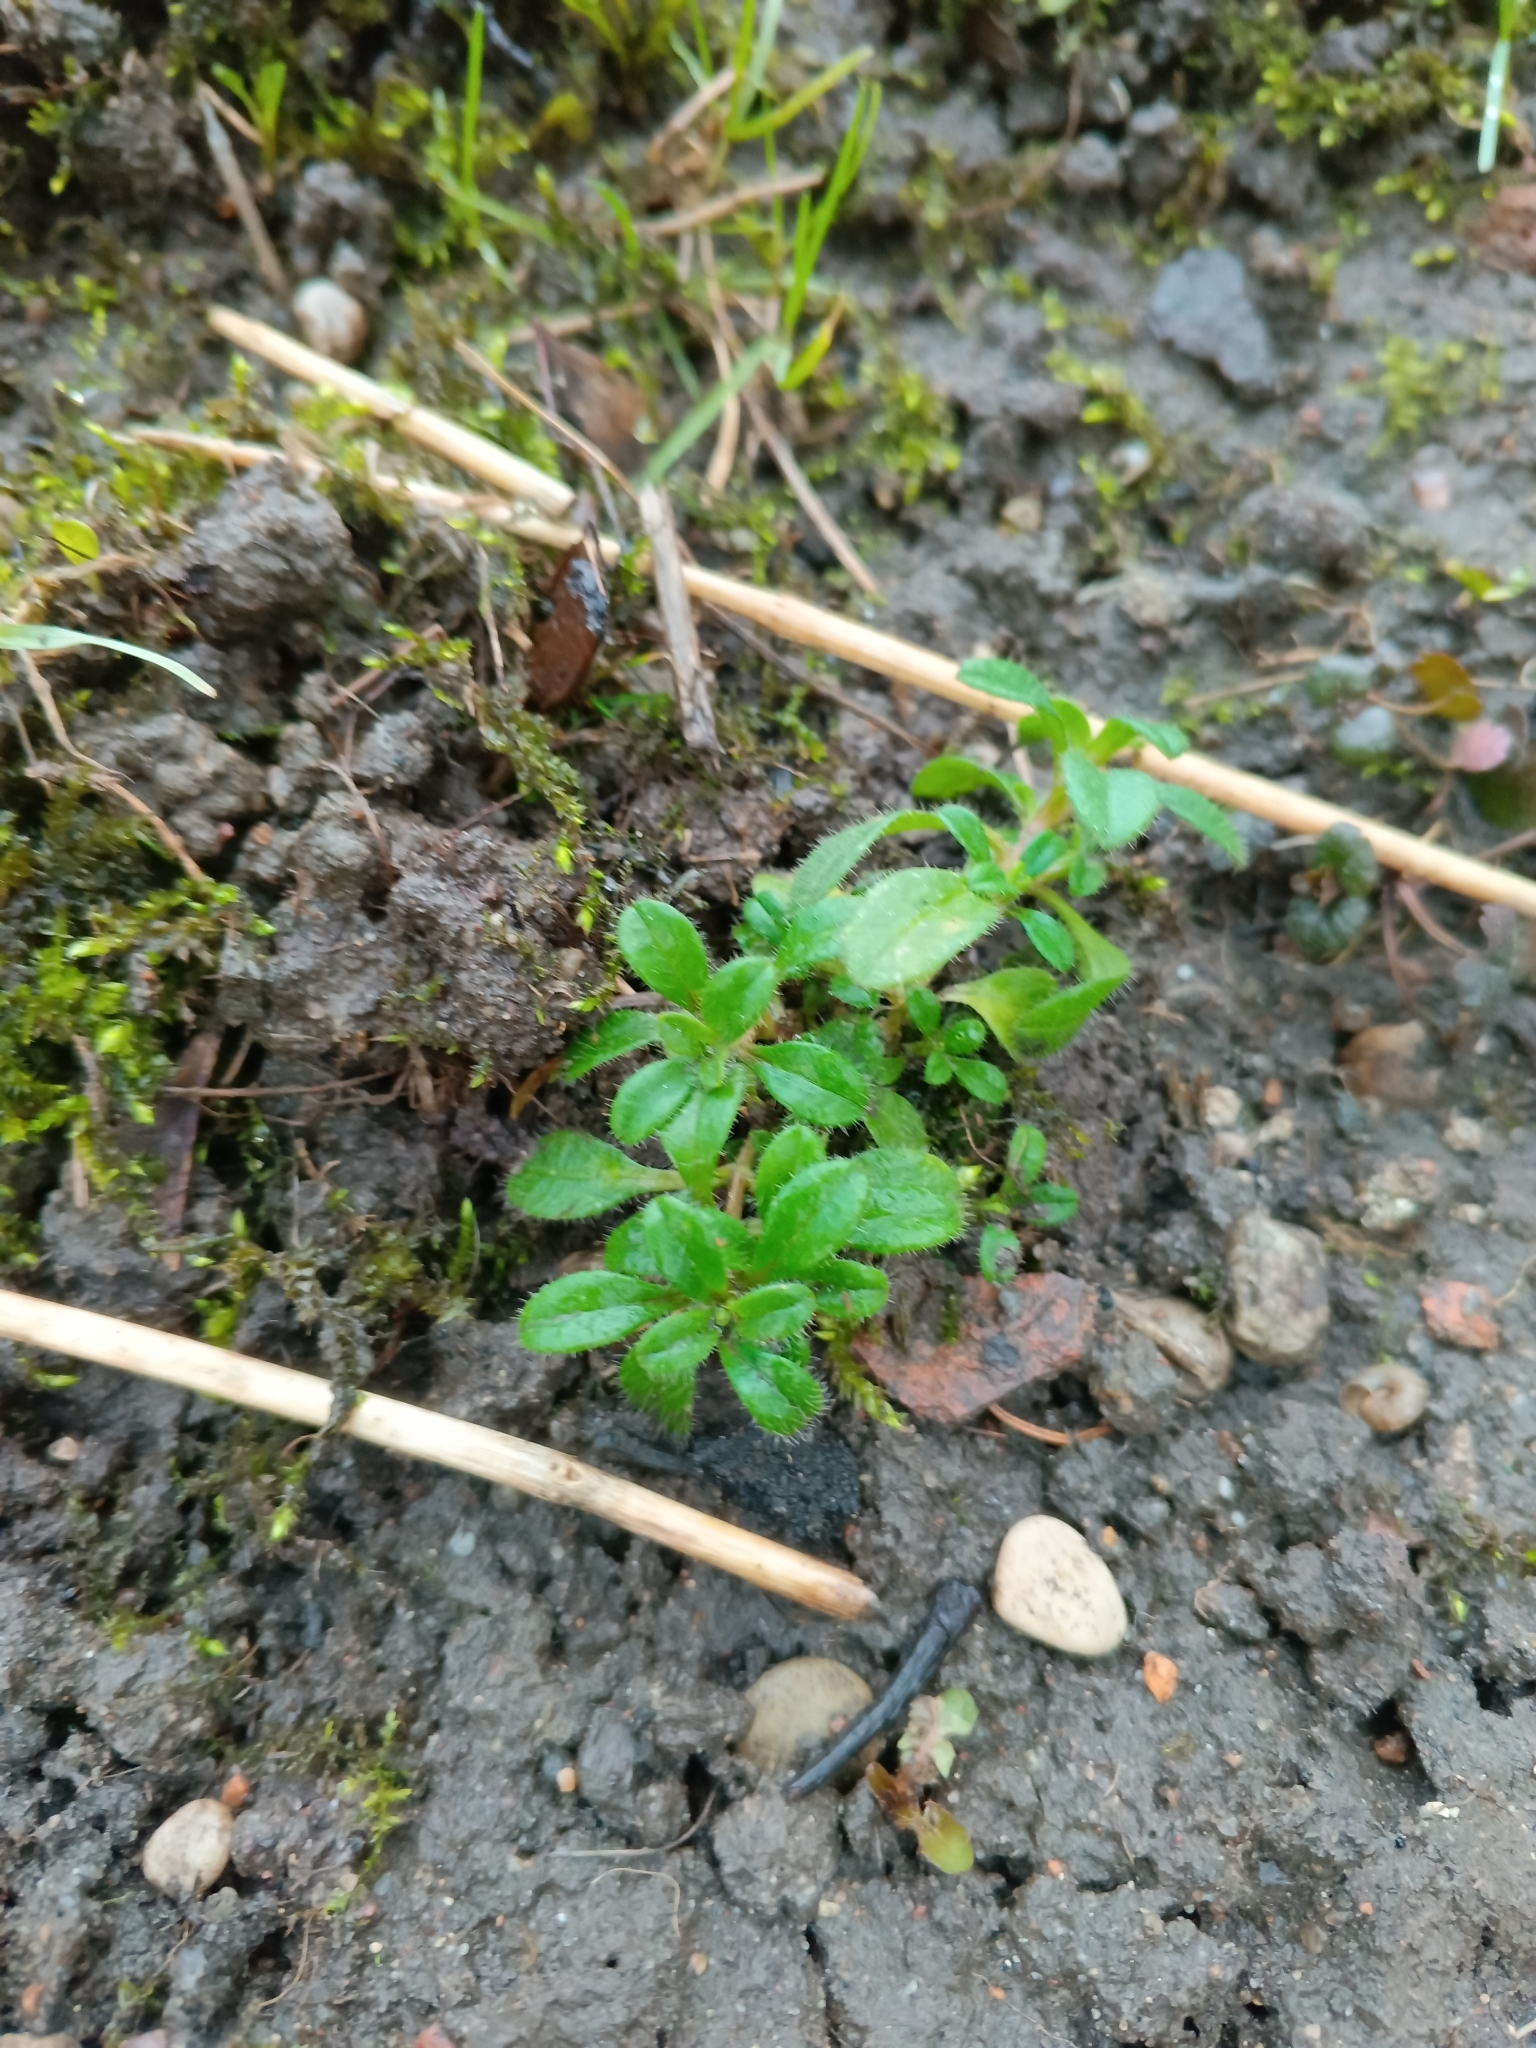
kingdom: Plantae
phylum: Tracheophyta
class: Magnoliopsida
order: Caryophyllales
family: Caryophyllaceae
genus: Cerastium
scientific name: Cerastium holosteoides
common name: Big chickweed
